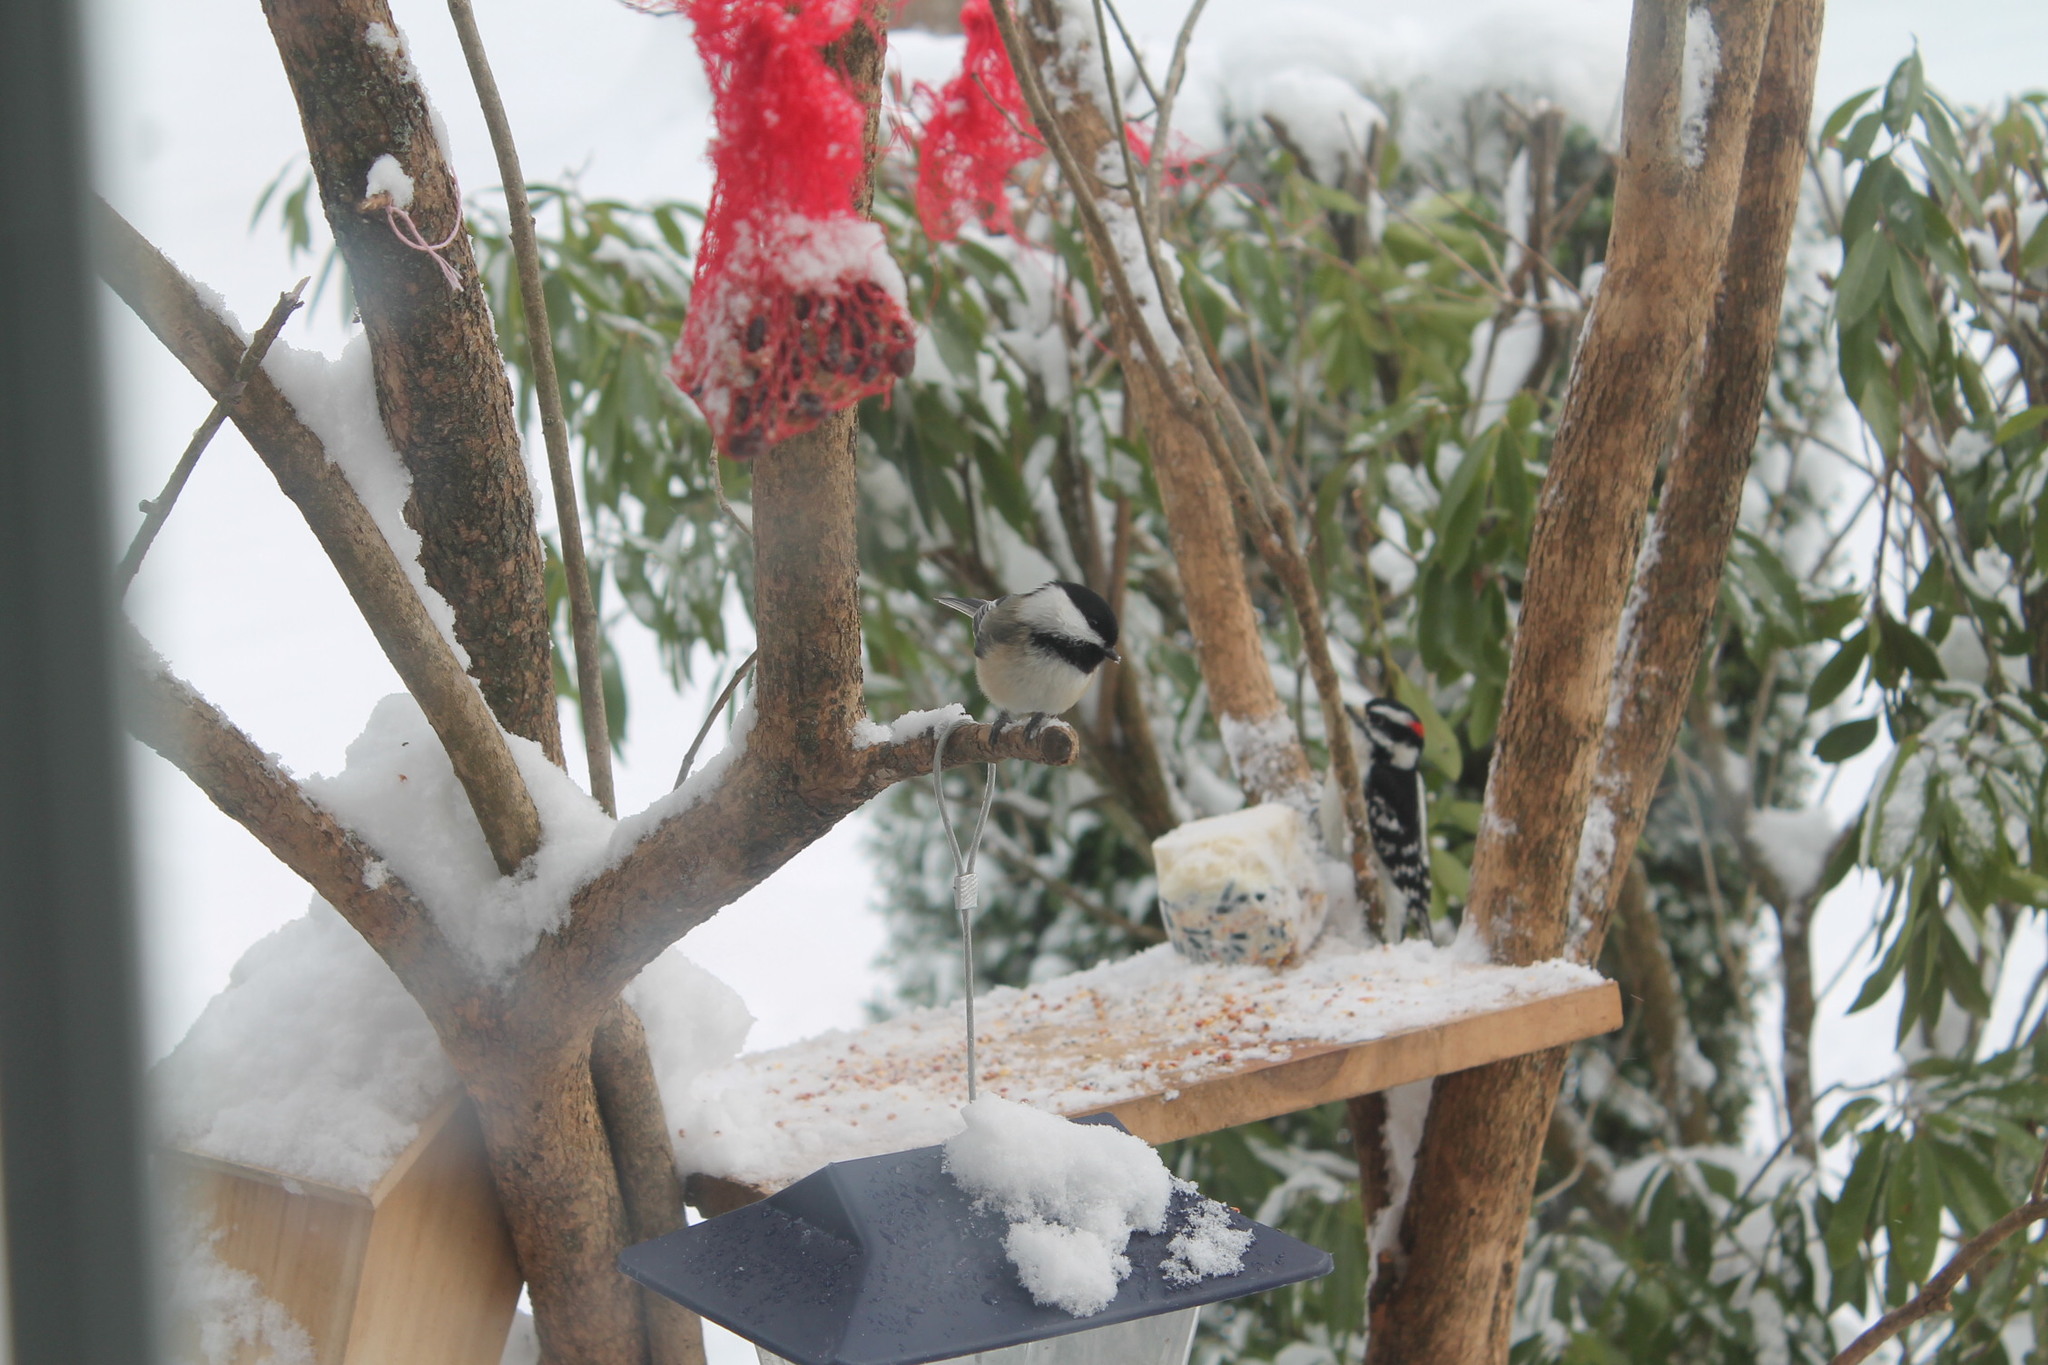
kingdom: Animalia
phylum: Chordata
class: Aves
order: Passeriformes
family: Paridae
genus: Poecile
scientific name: Poecile atricapillus
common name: Black-capped chickadee
